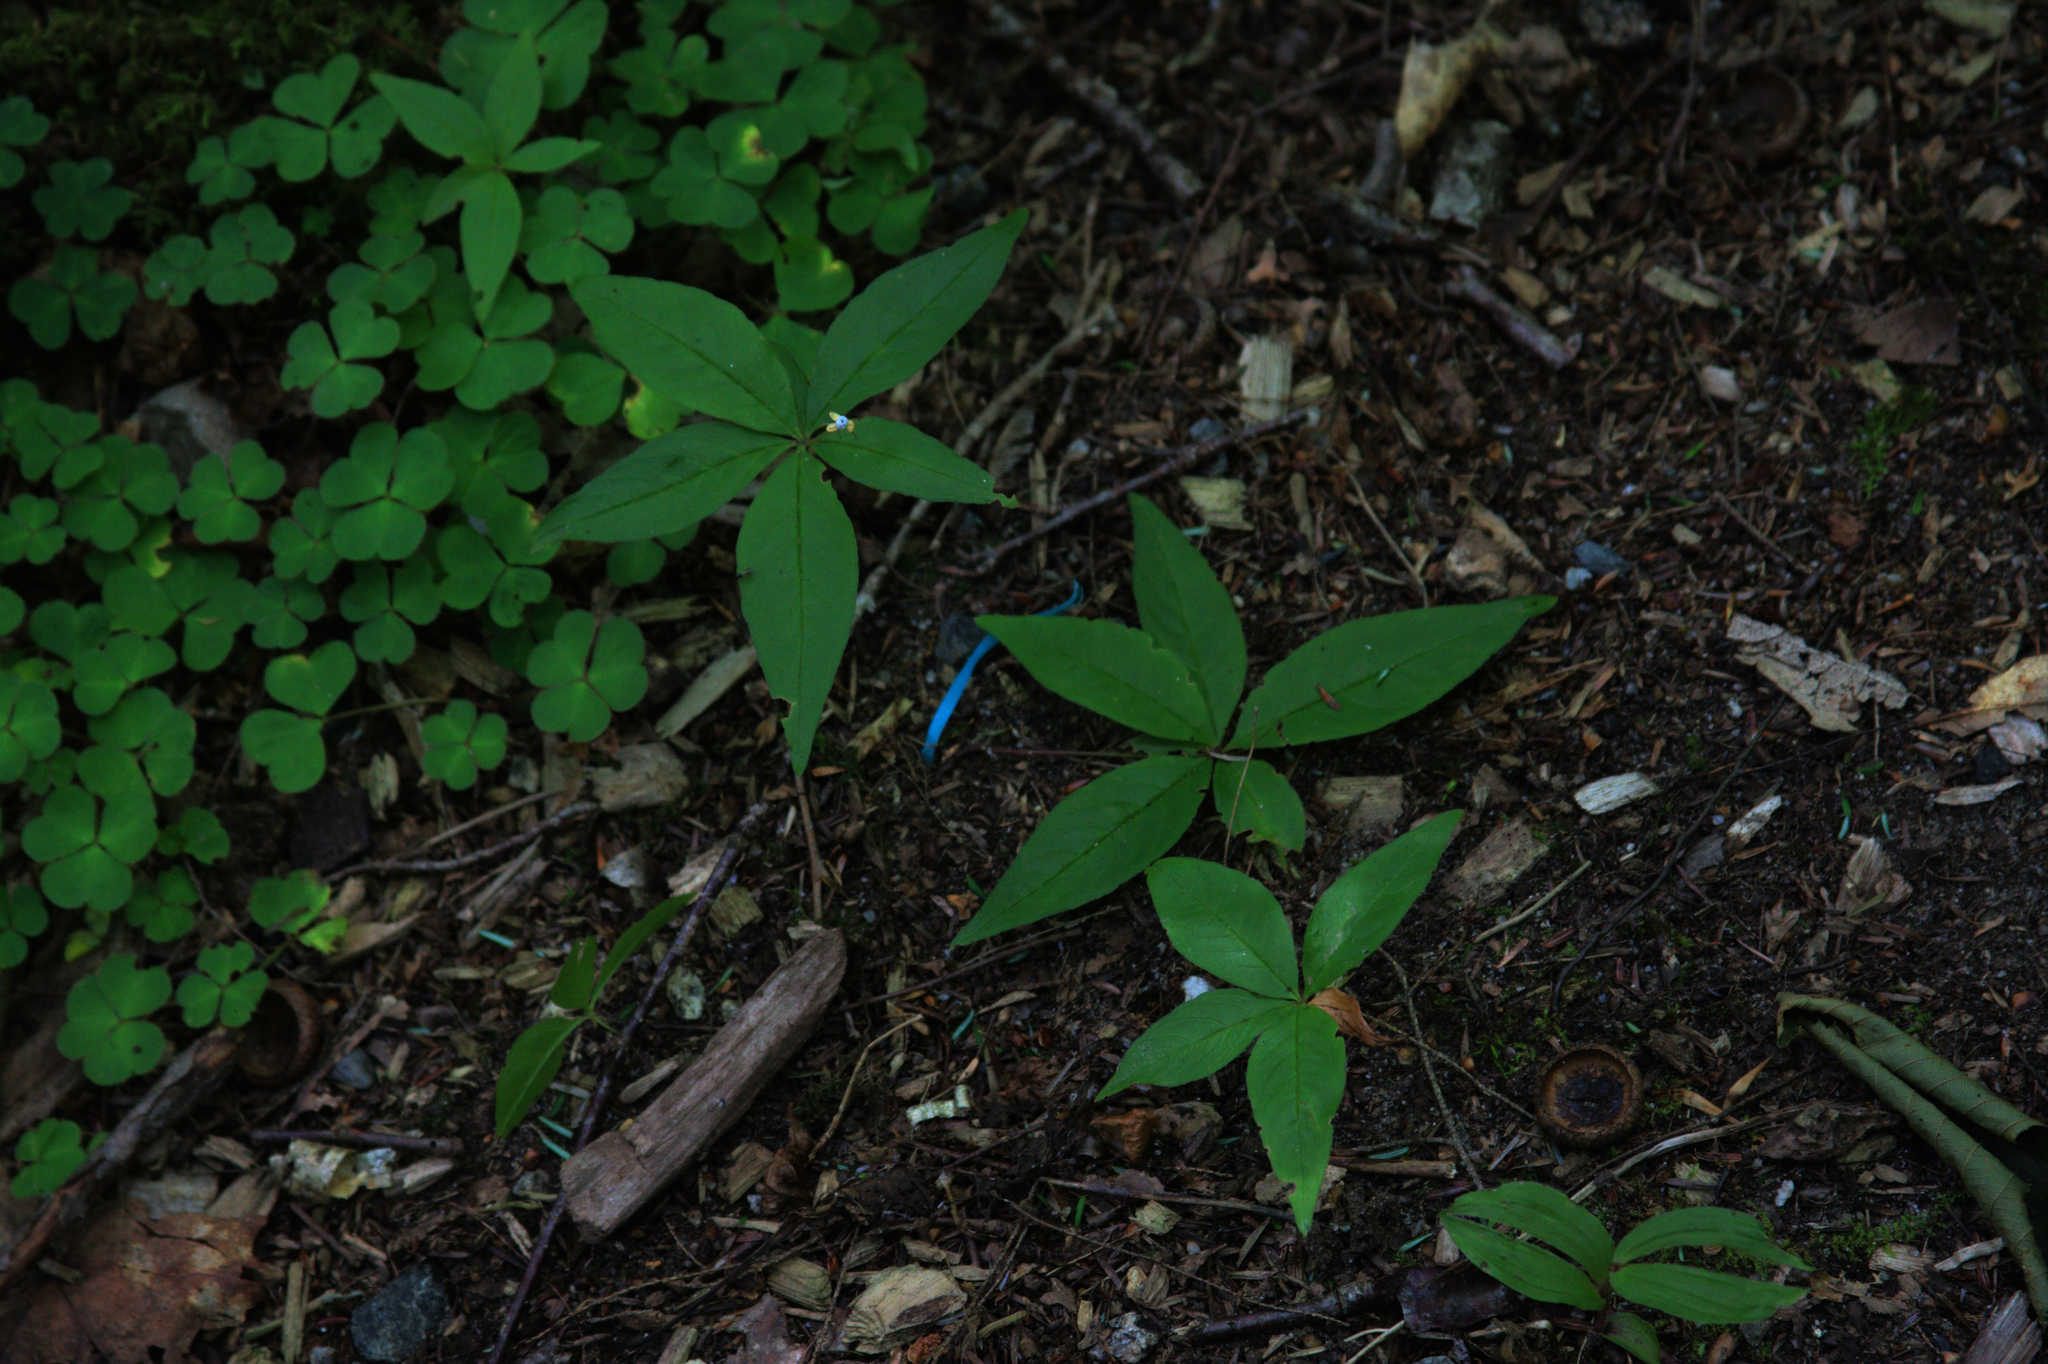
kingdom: Plantae
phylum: Tracheophyta
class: Magnoliopsida
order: Ericales
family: Primulaceae
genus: Lysimachia
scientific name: Lysimachia borealis
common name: American starflower
